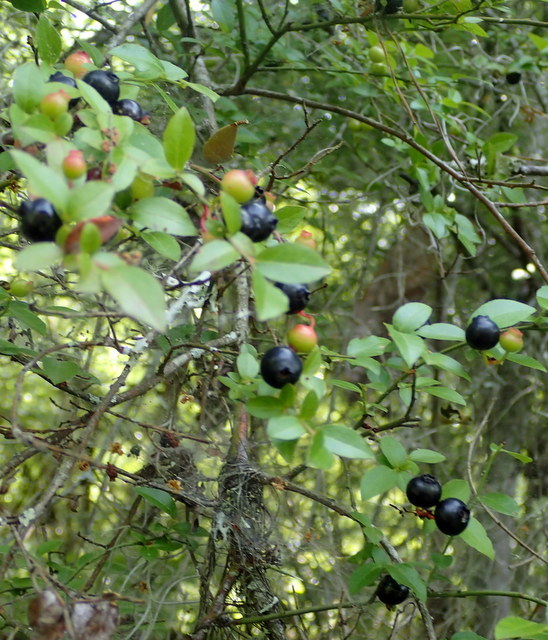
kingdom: Plantae
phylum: Tracheophyta
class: Magnoliopsida
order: Ericales
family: Ericaceae
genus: Vaccinium
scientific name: Vaccinium corymbosum
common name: Blueberry
